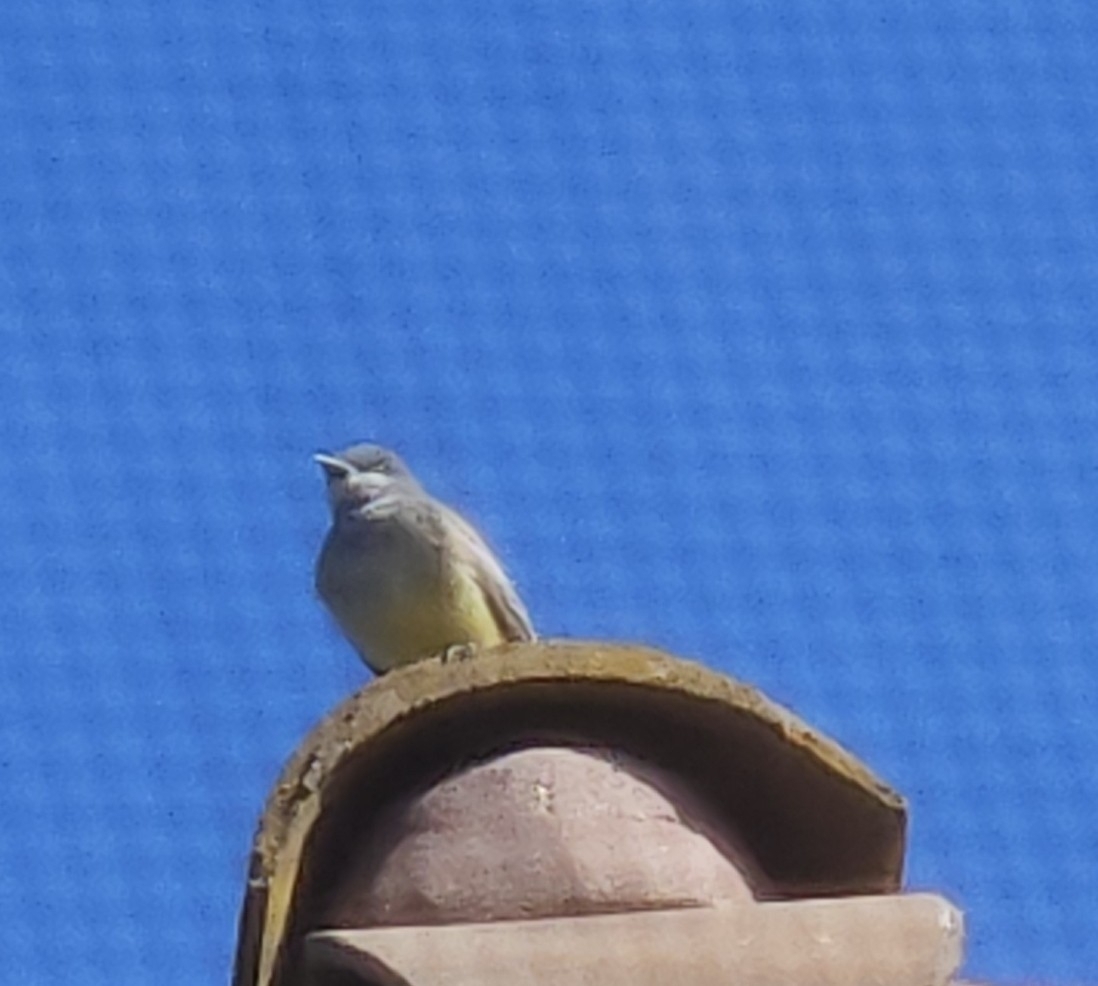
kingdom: Animalia
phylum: Chordata
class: Aves
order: Passeriformes
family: Tyrannidae
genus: Tyrannus
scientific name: Tyrannus vociferans
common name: Cassin's kingbird
